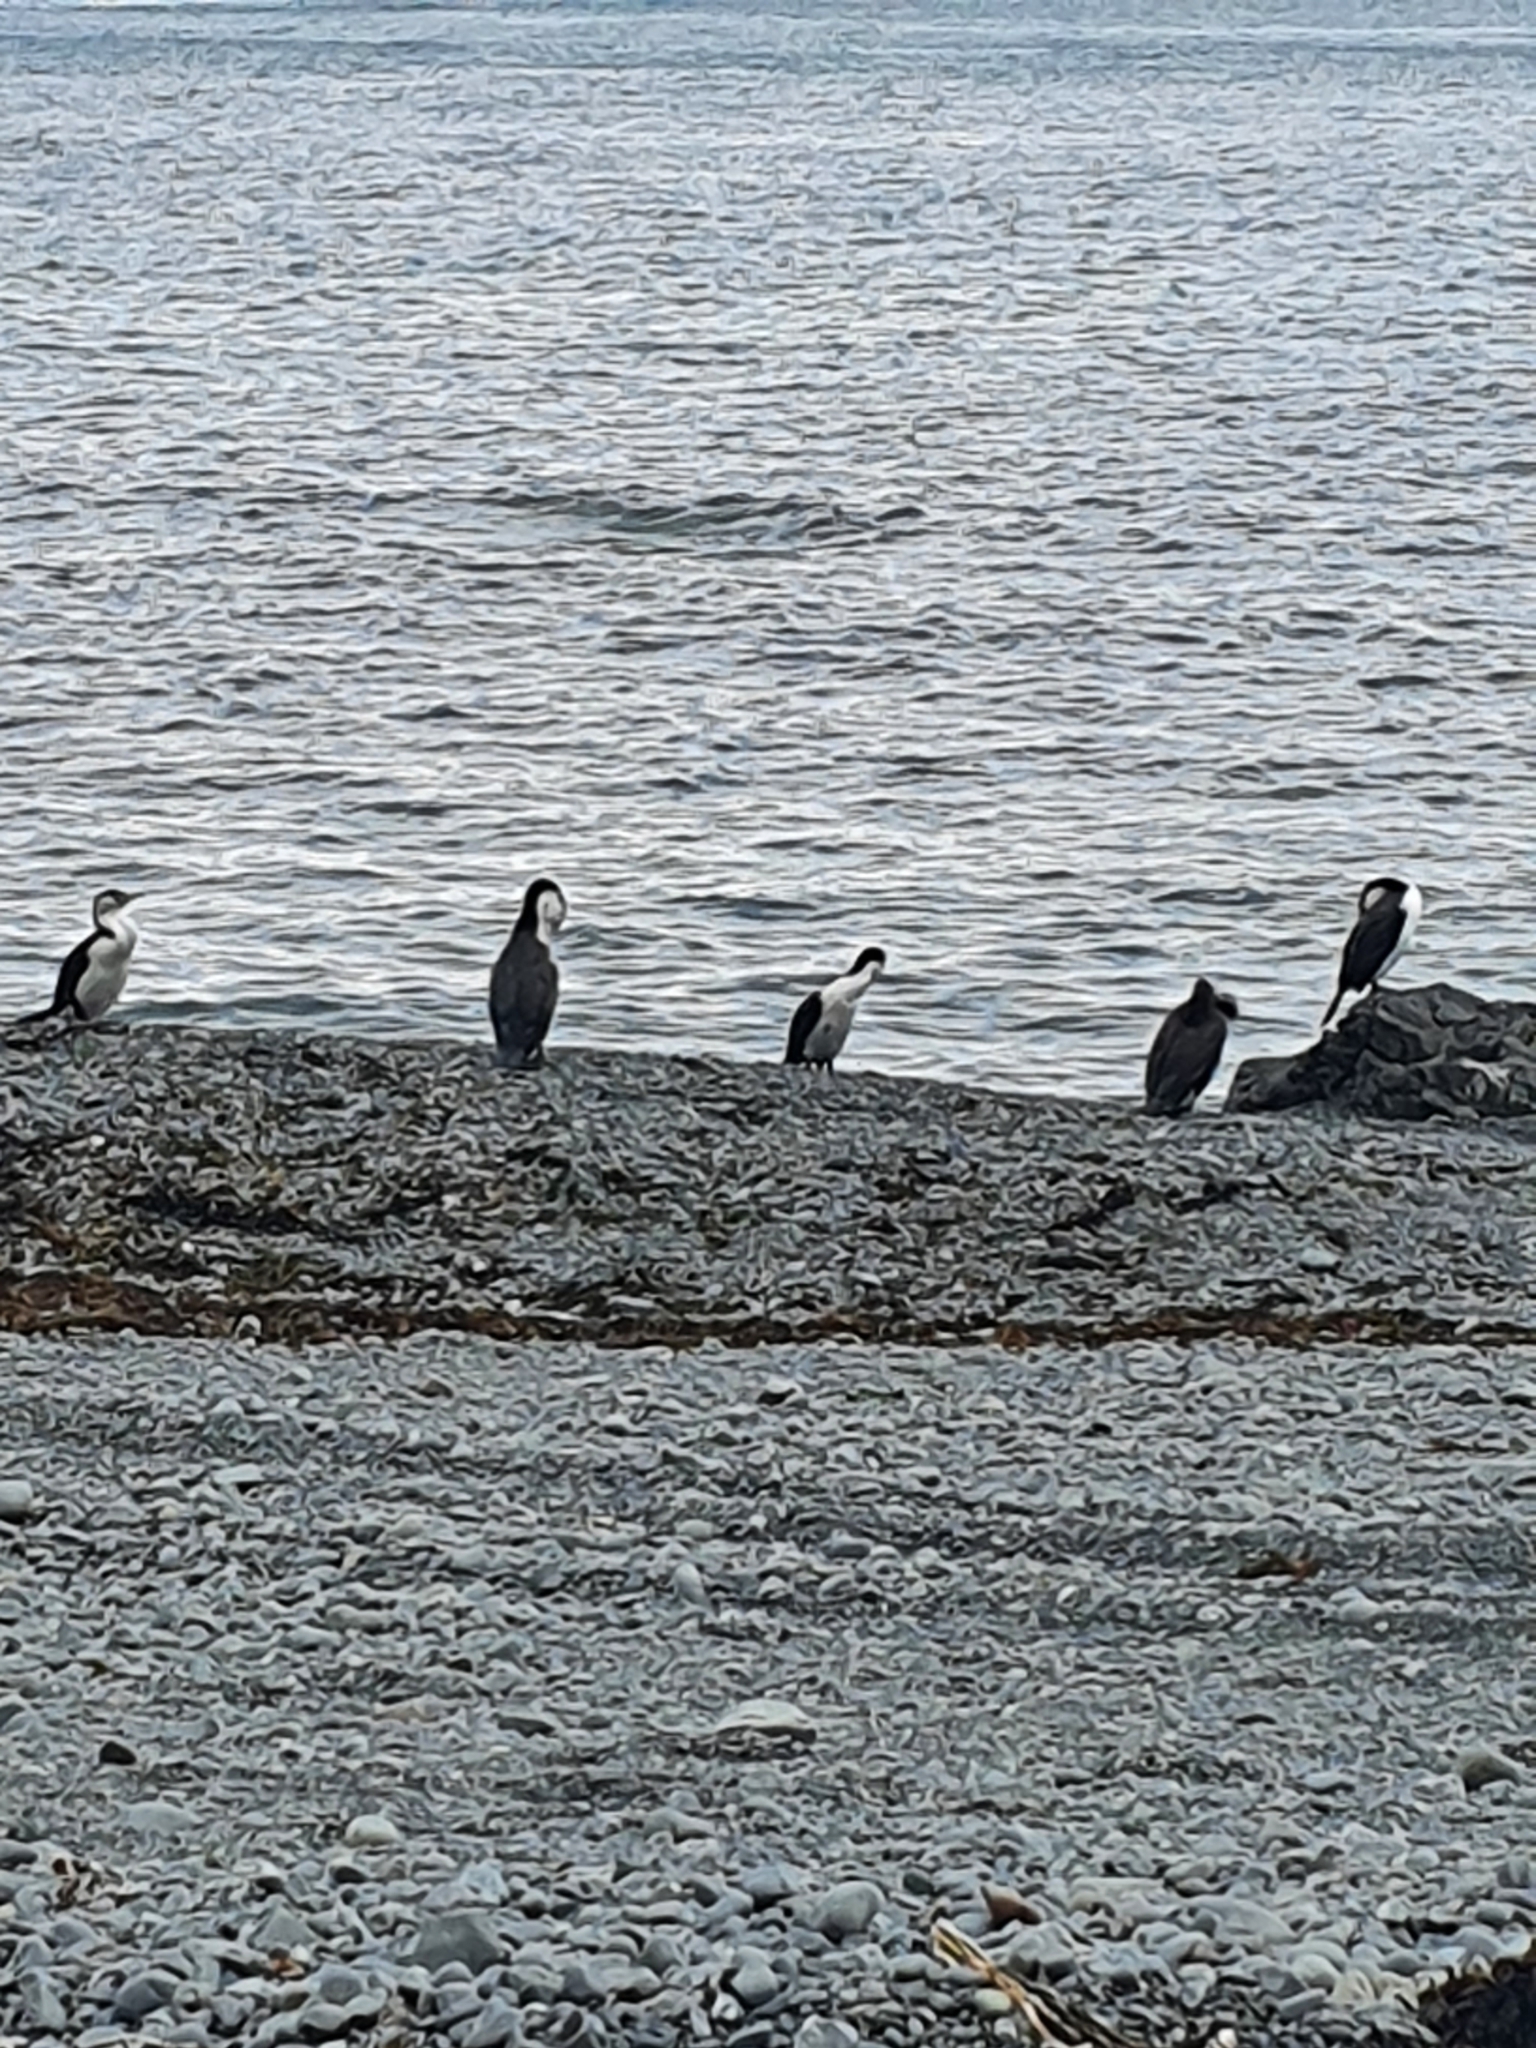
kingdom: Animalia
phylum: Chordata
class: Aves
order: Suliformes
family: Phalacrocoracidae
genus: Phalacrocorax
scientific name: Phalacrocorax varius
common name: Pied cormorant
